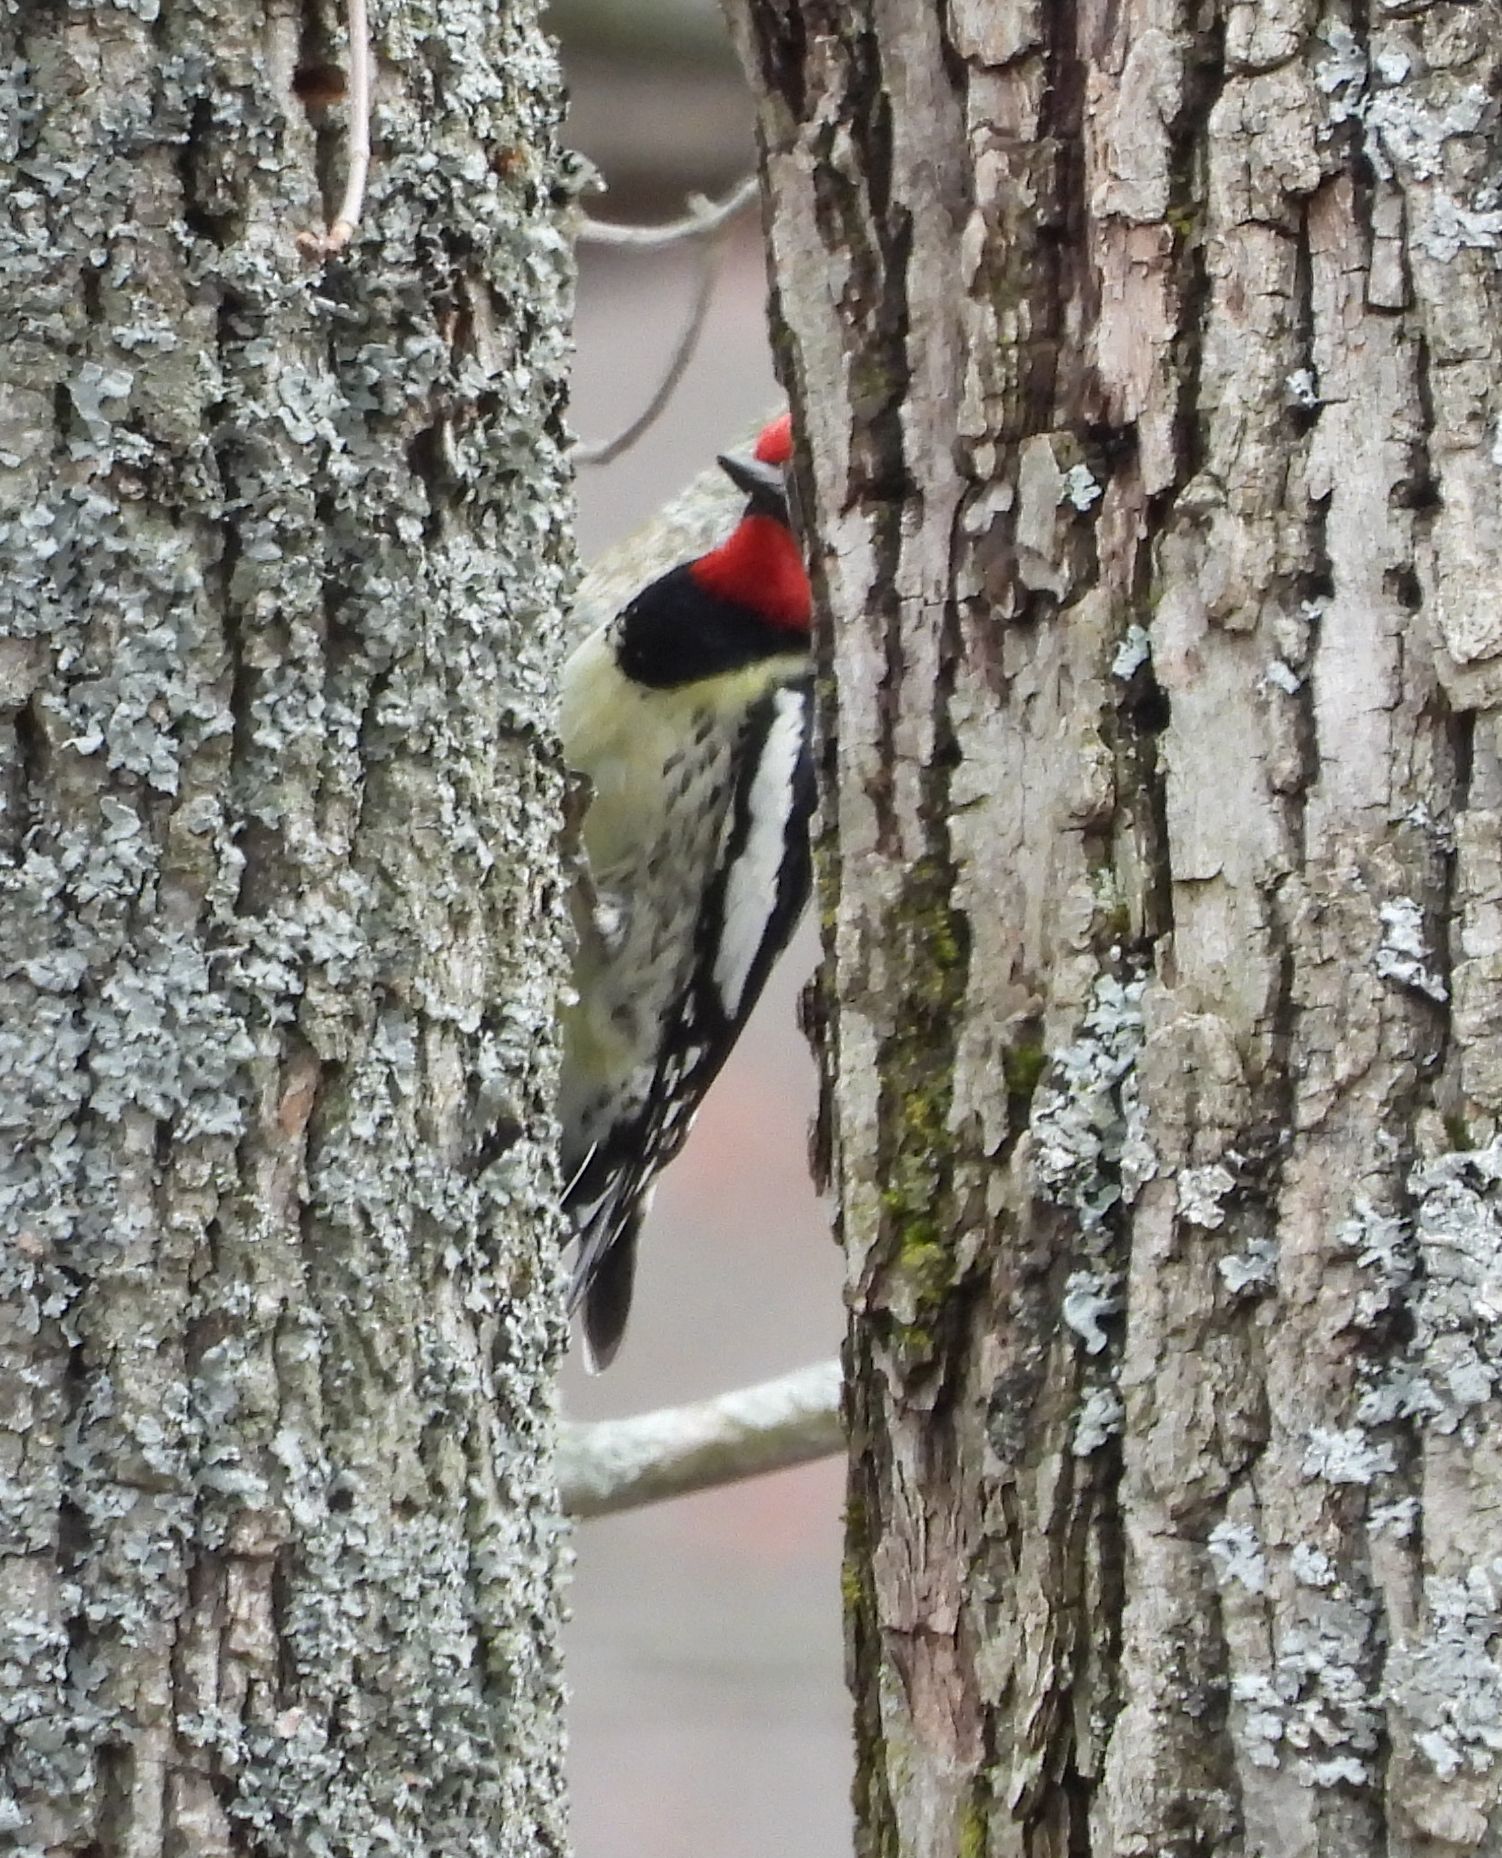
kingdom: Animalia
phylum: Chordata
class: Aves
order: Piciformes
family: Picidae
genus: Sphyrapicus
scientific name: Sphyrapicus varius
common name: Yellow-bellied sapsucker
